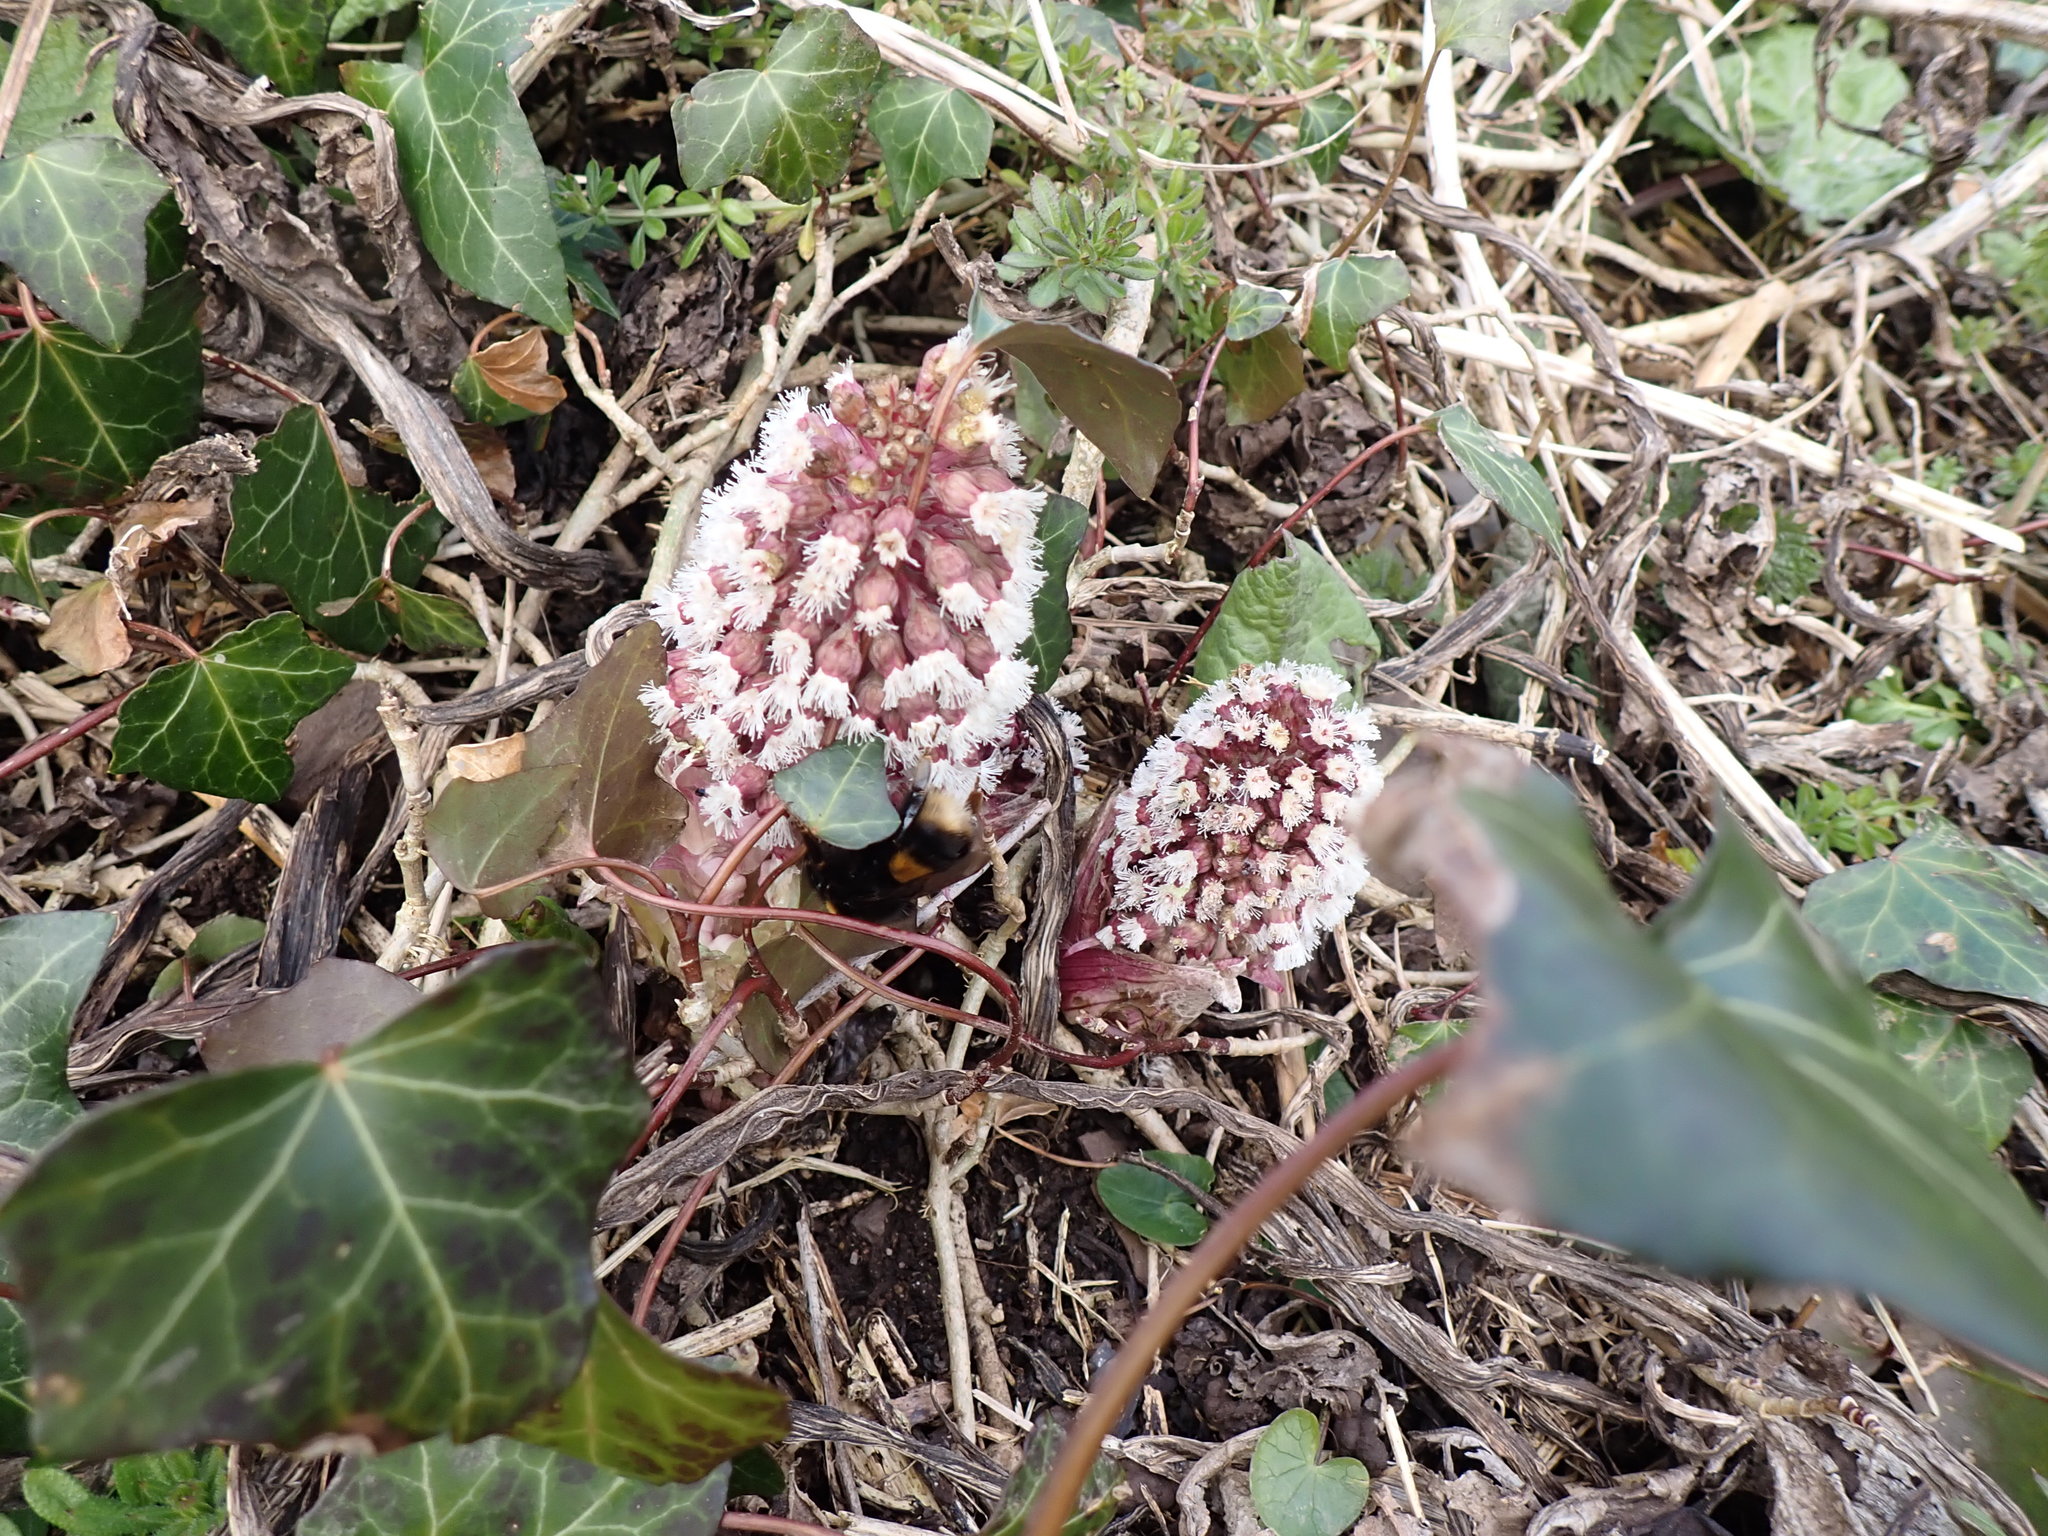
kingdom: Plantae
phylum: Tracheophyta
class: Magnoliopsida
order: Asterales
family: Asteraceae
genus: Petasites
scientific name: Petasites hybridus
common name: Butterbur
